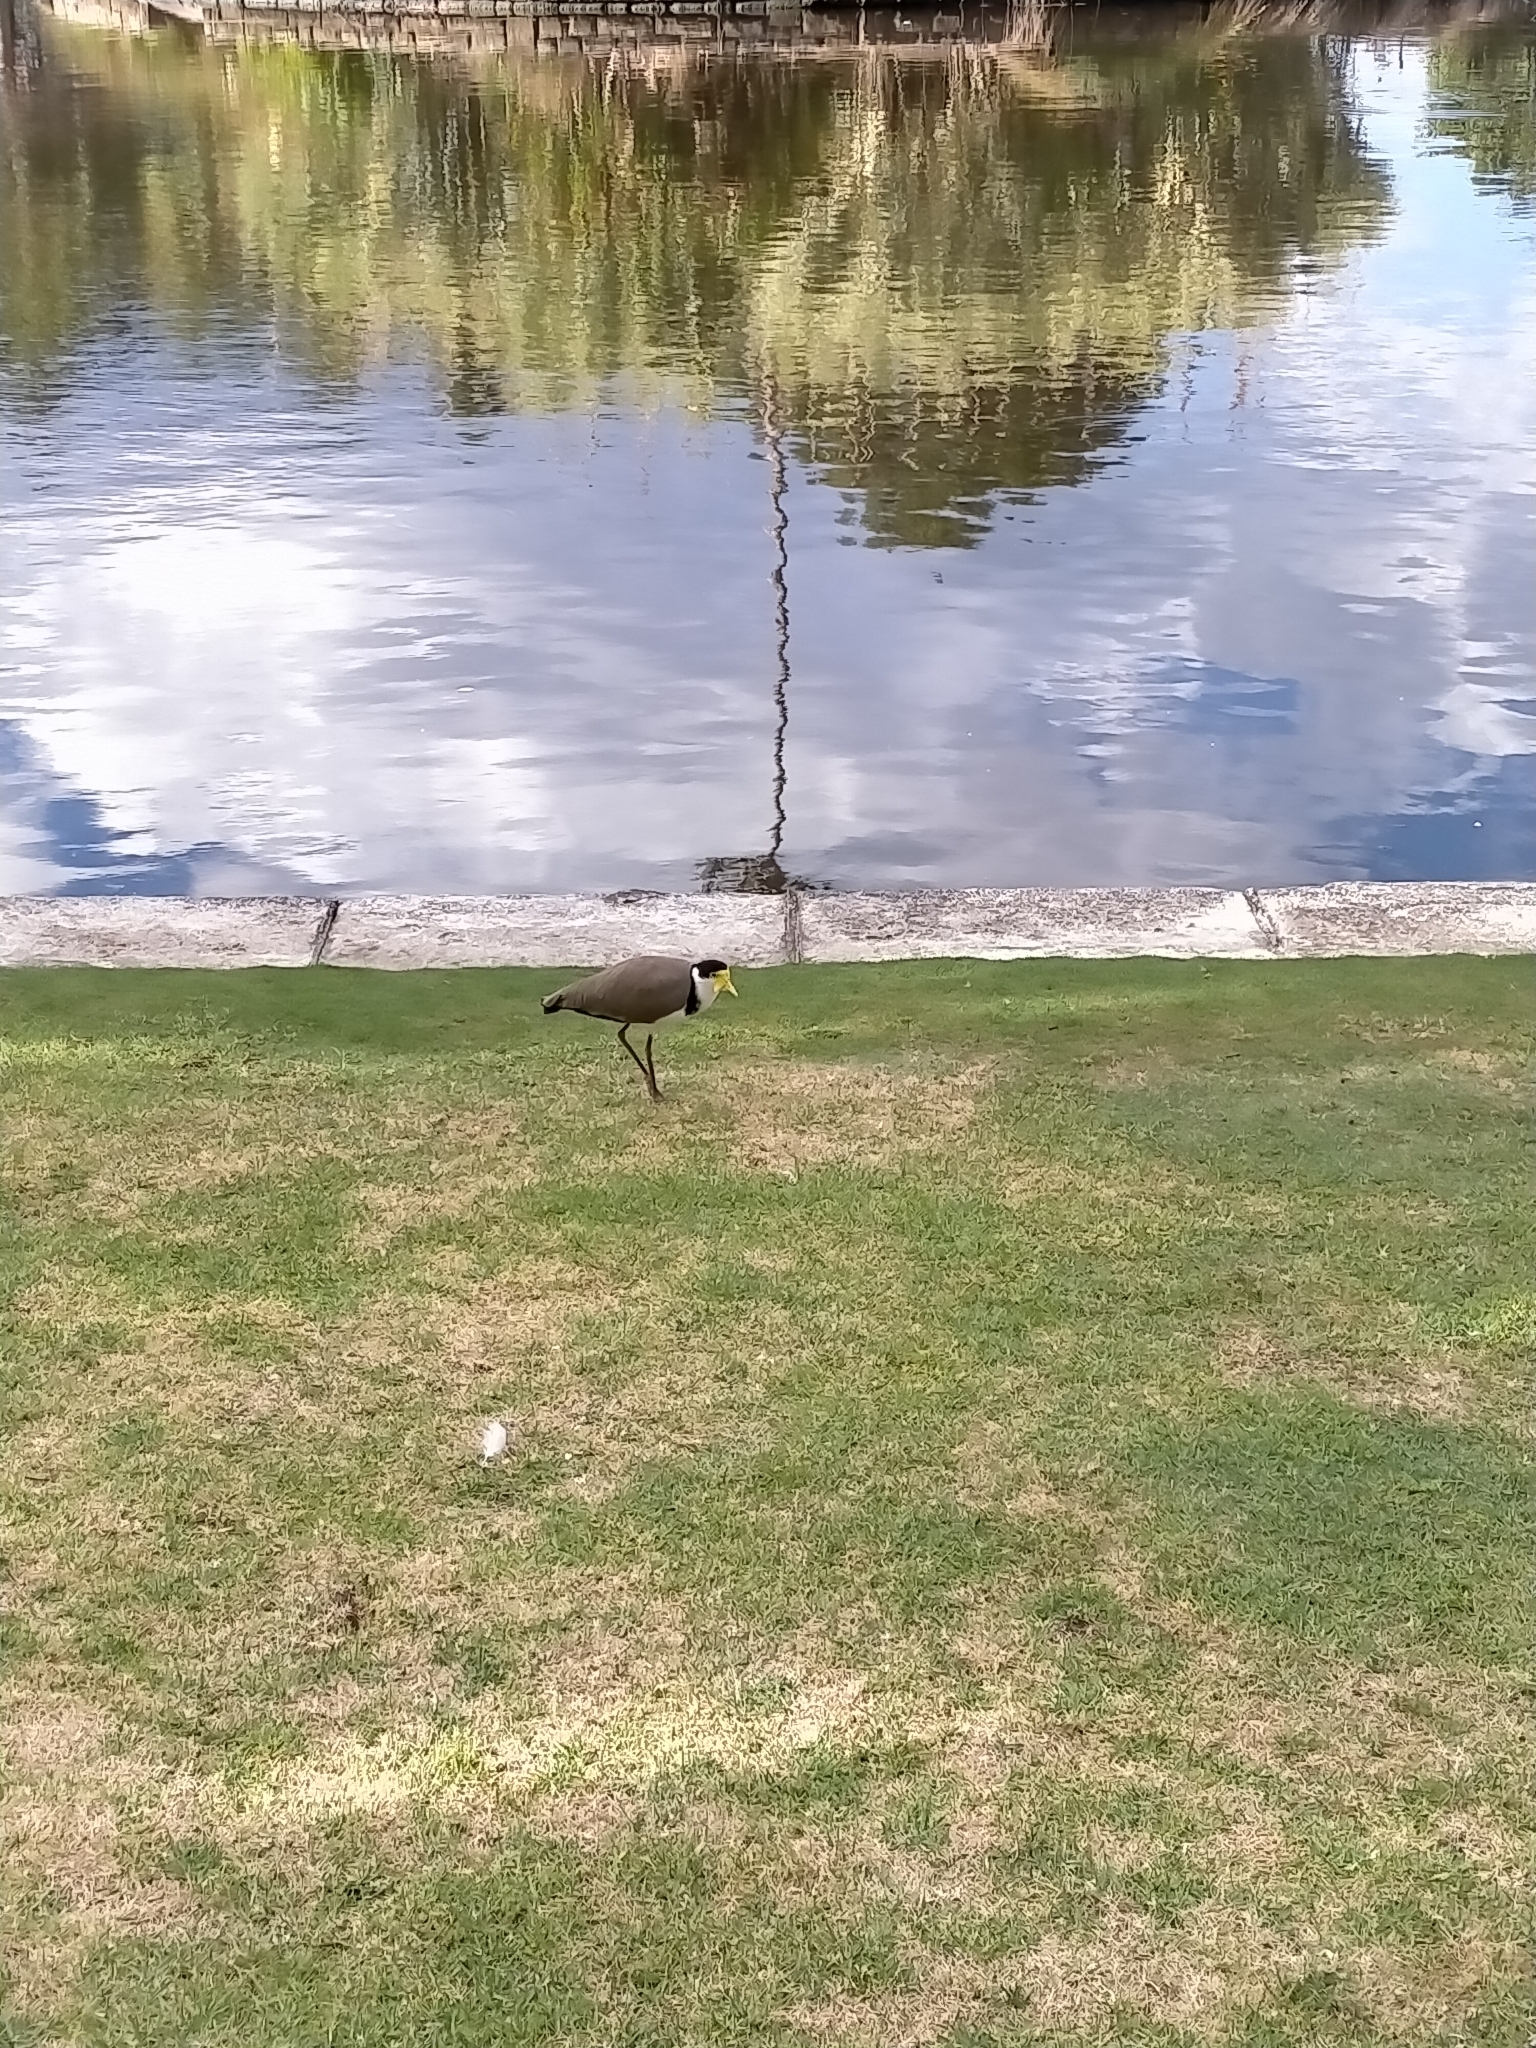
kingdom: Animalia
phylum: Chordata
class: Aves
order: Charadriiformes
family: Charadriidae
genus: Vanellus
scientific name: Vanellus miles
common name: Masked lapwing
